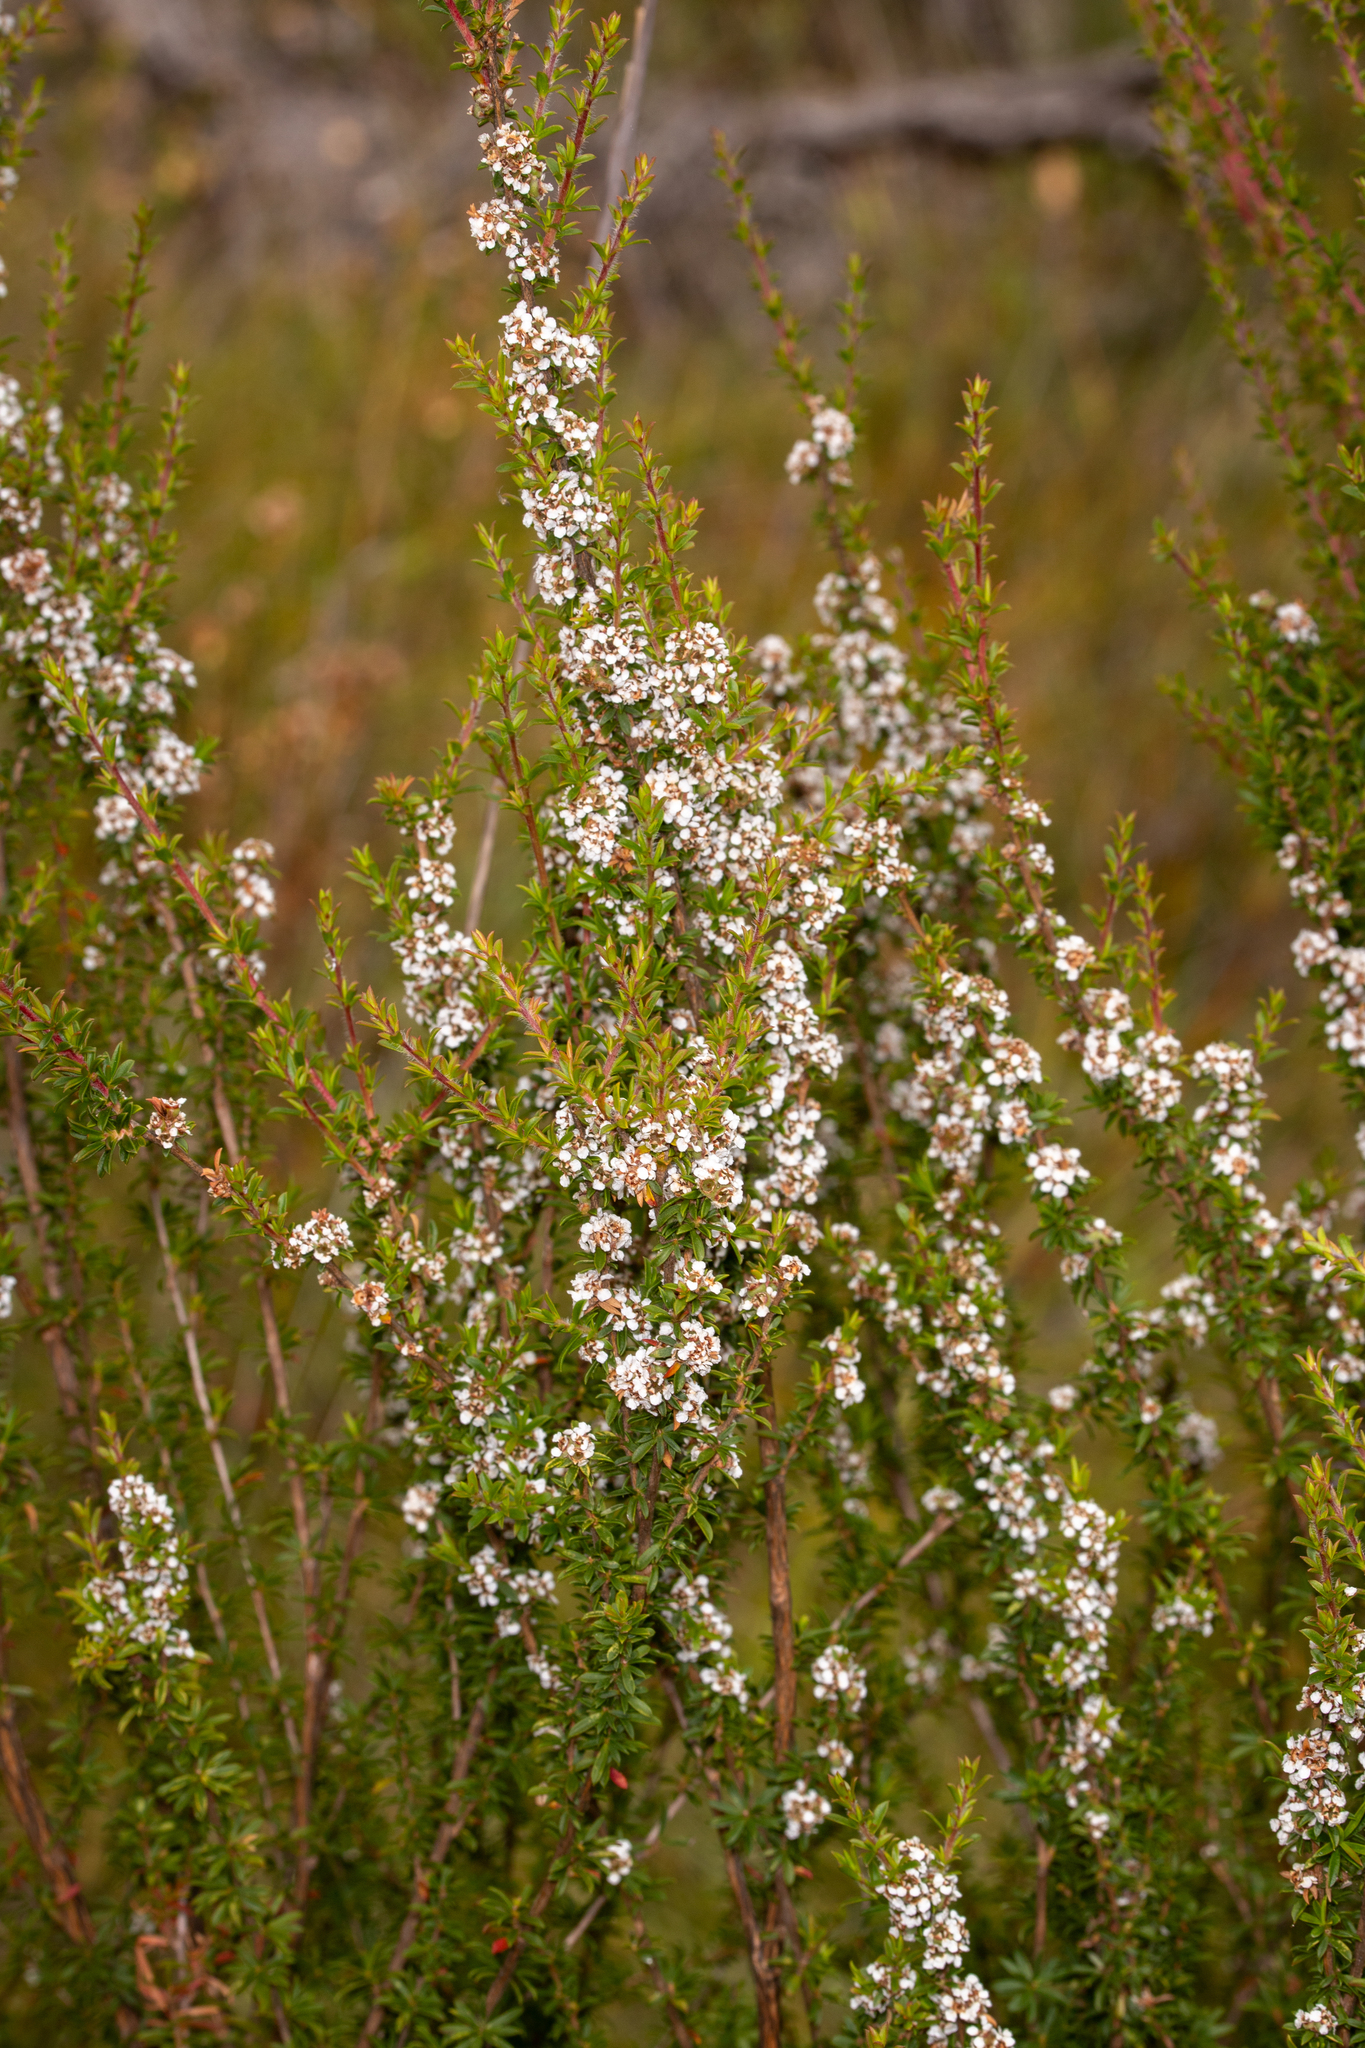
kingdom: Plantae
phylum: Tracheophyta
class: Magnoliopsida
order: Myrtales
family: Myrtaceae
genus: Taxandria
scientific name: Taxandria parviceps
